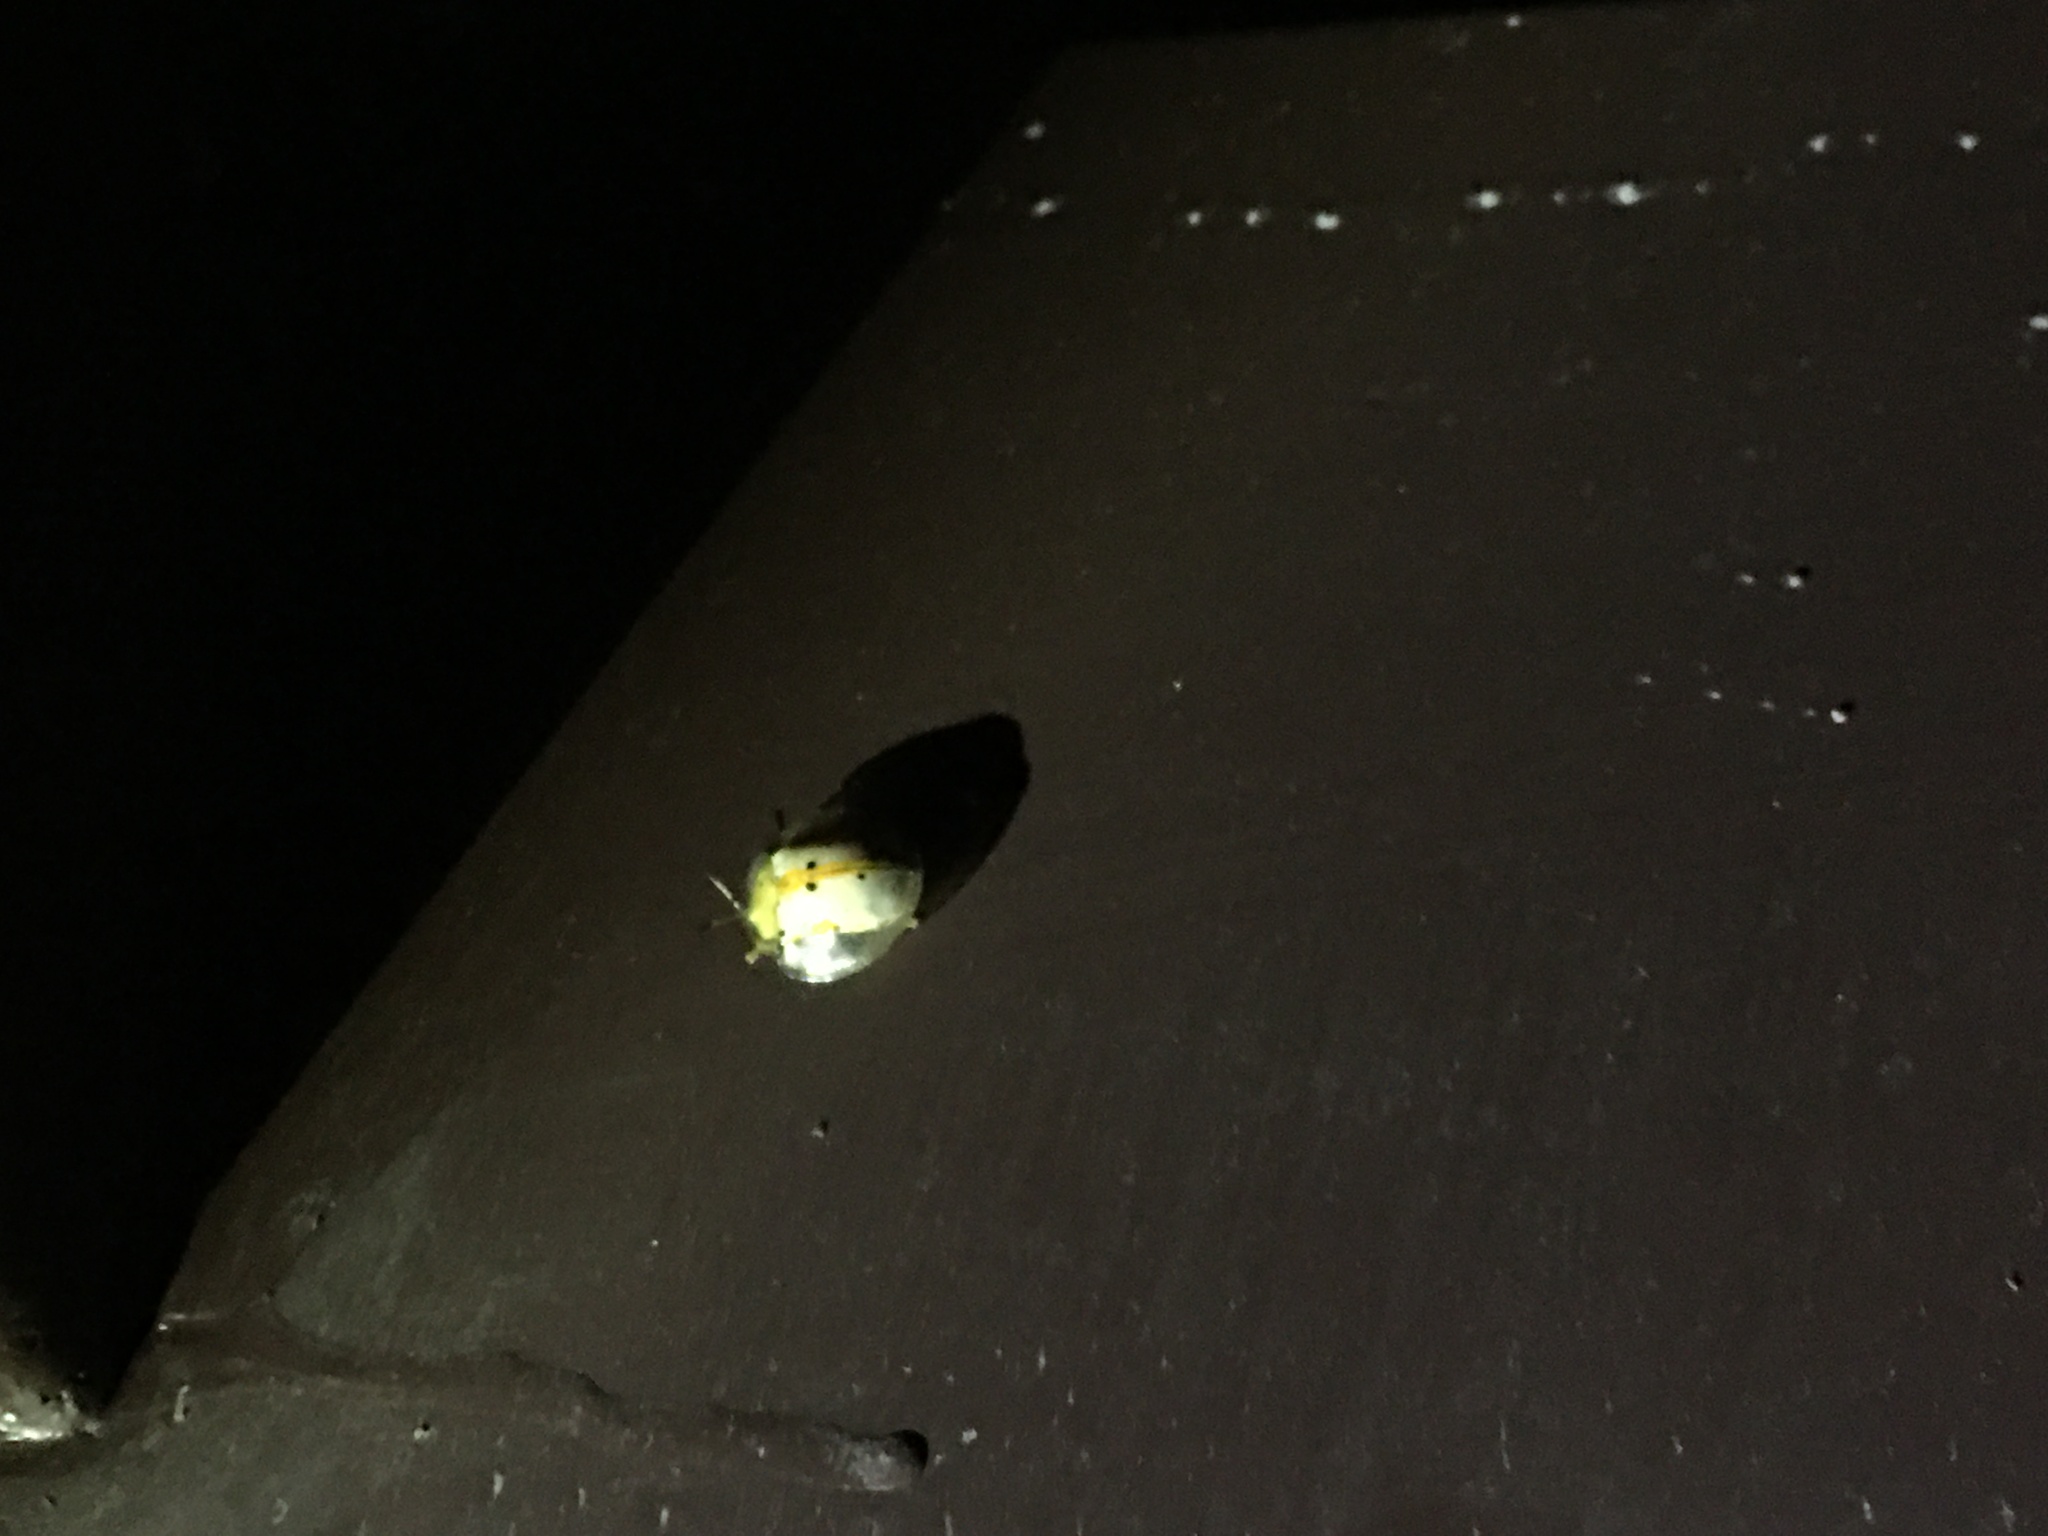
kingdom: Animalia
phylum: Arthropoda
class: Insecta
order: Coleoptera
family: Chrysomelidae
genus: Aspidimorpha
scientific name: Aspidimorpha miliaris
